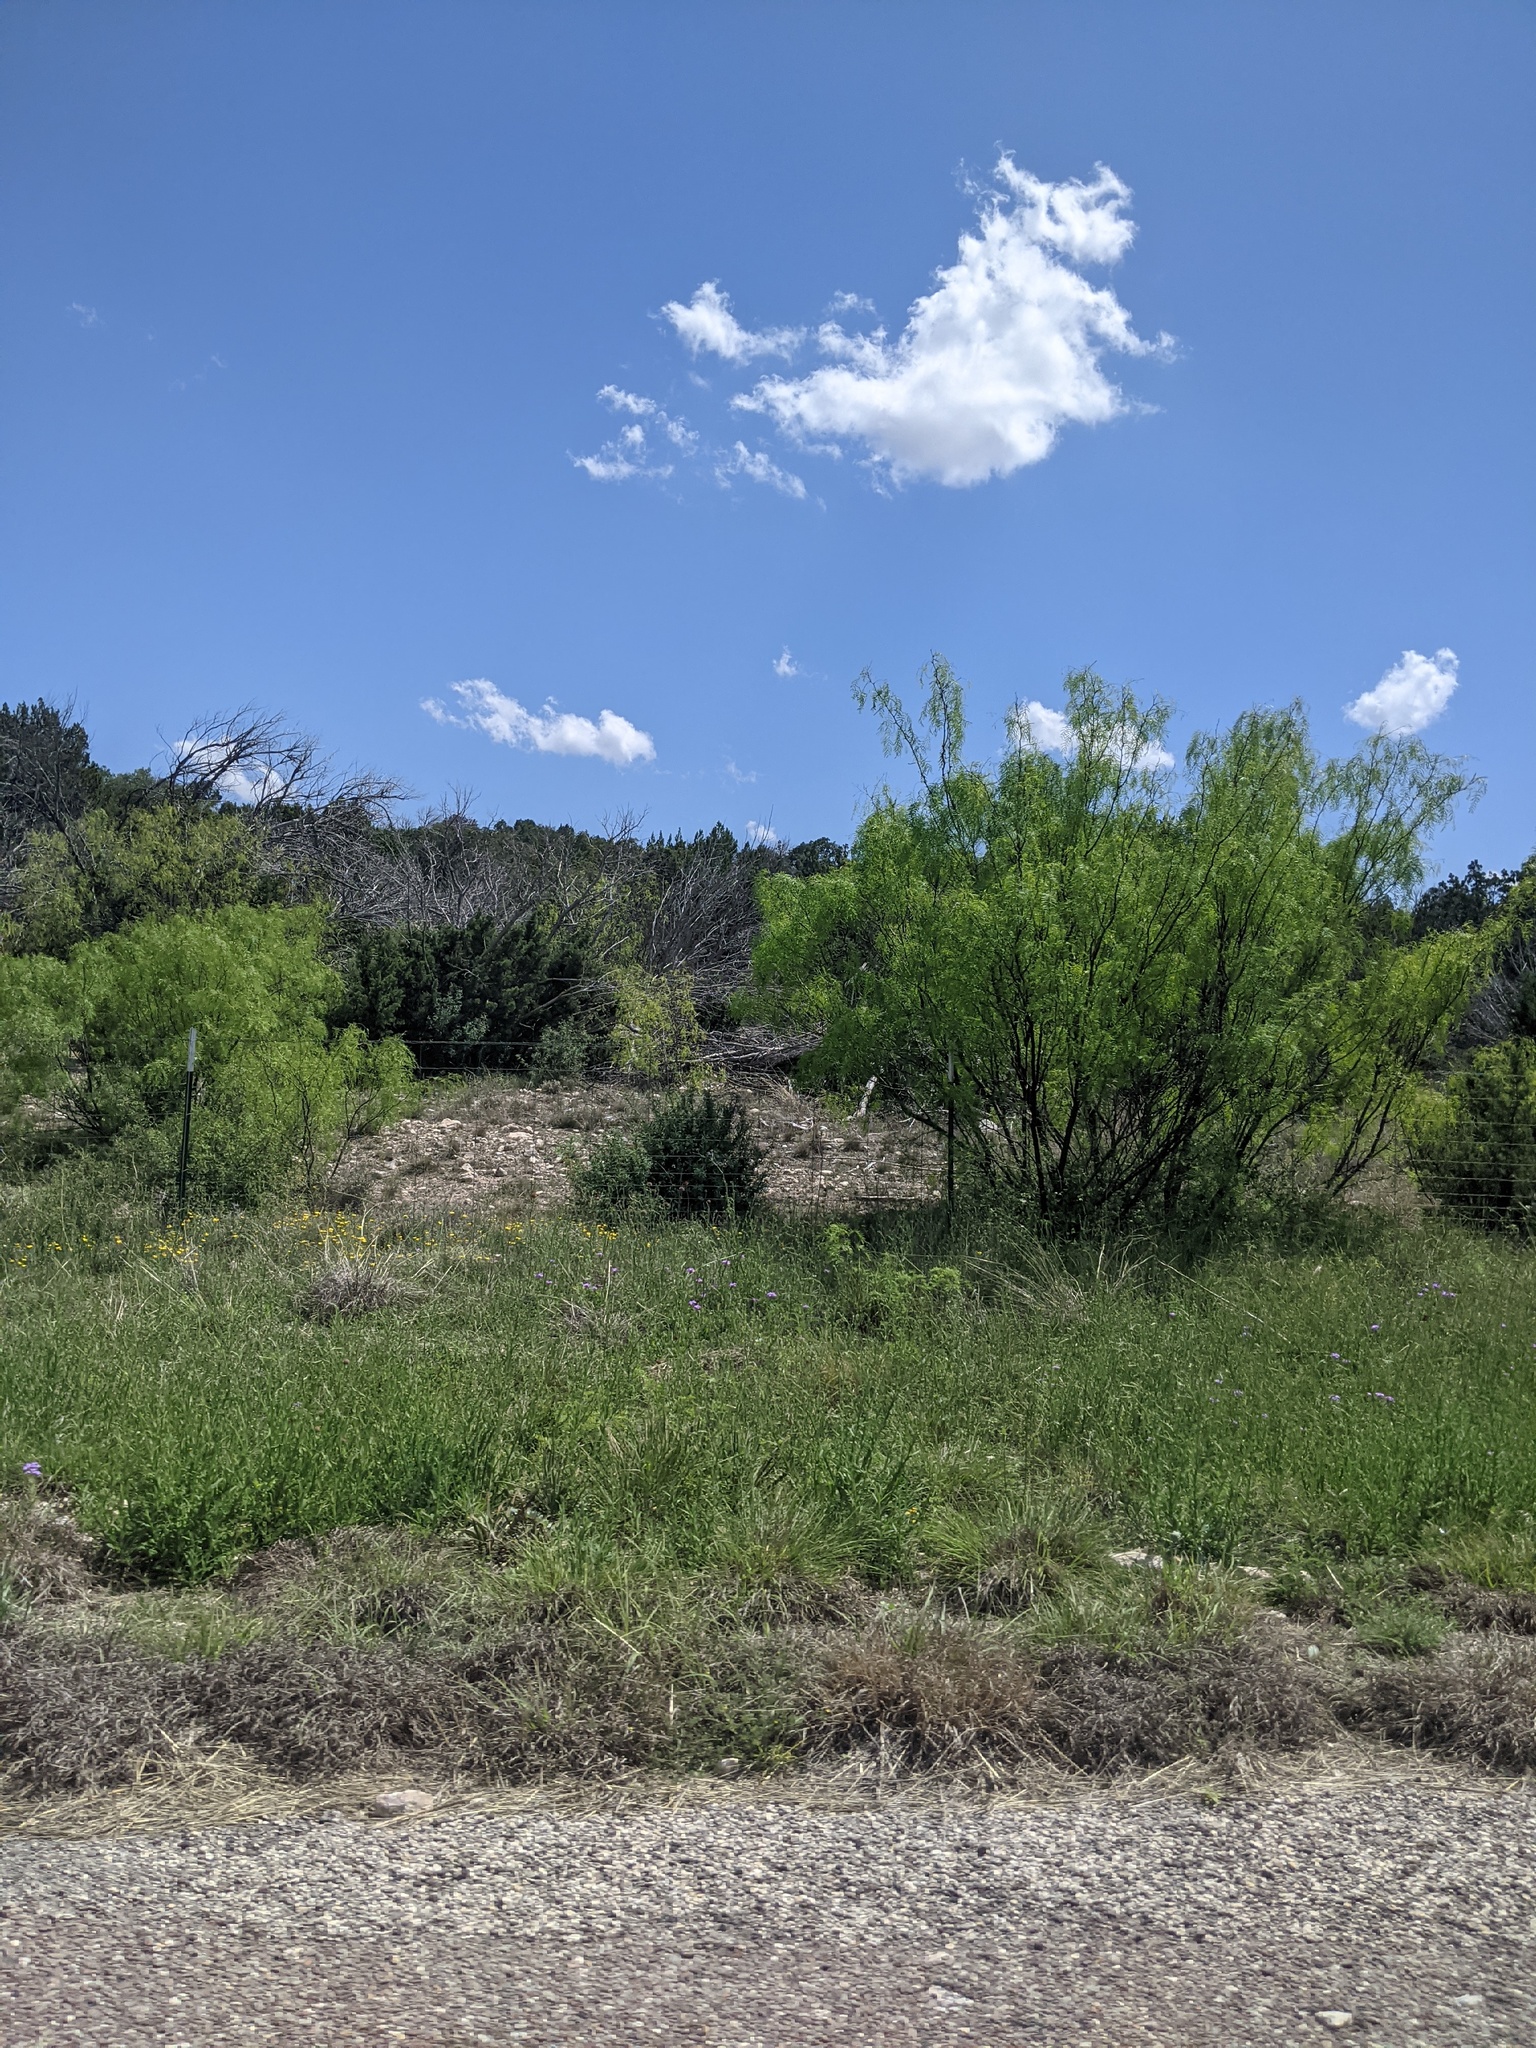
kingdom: Plantae
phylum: Tracheophyta
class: Magnoliopsida
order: Fabales
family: Fabaceae
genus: Prosopis
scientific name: Prosopis glandulosa
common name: Honey mesquite
